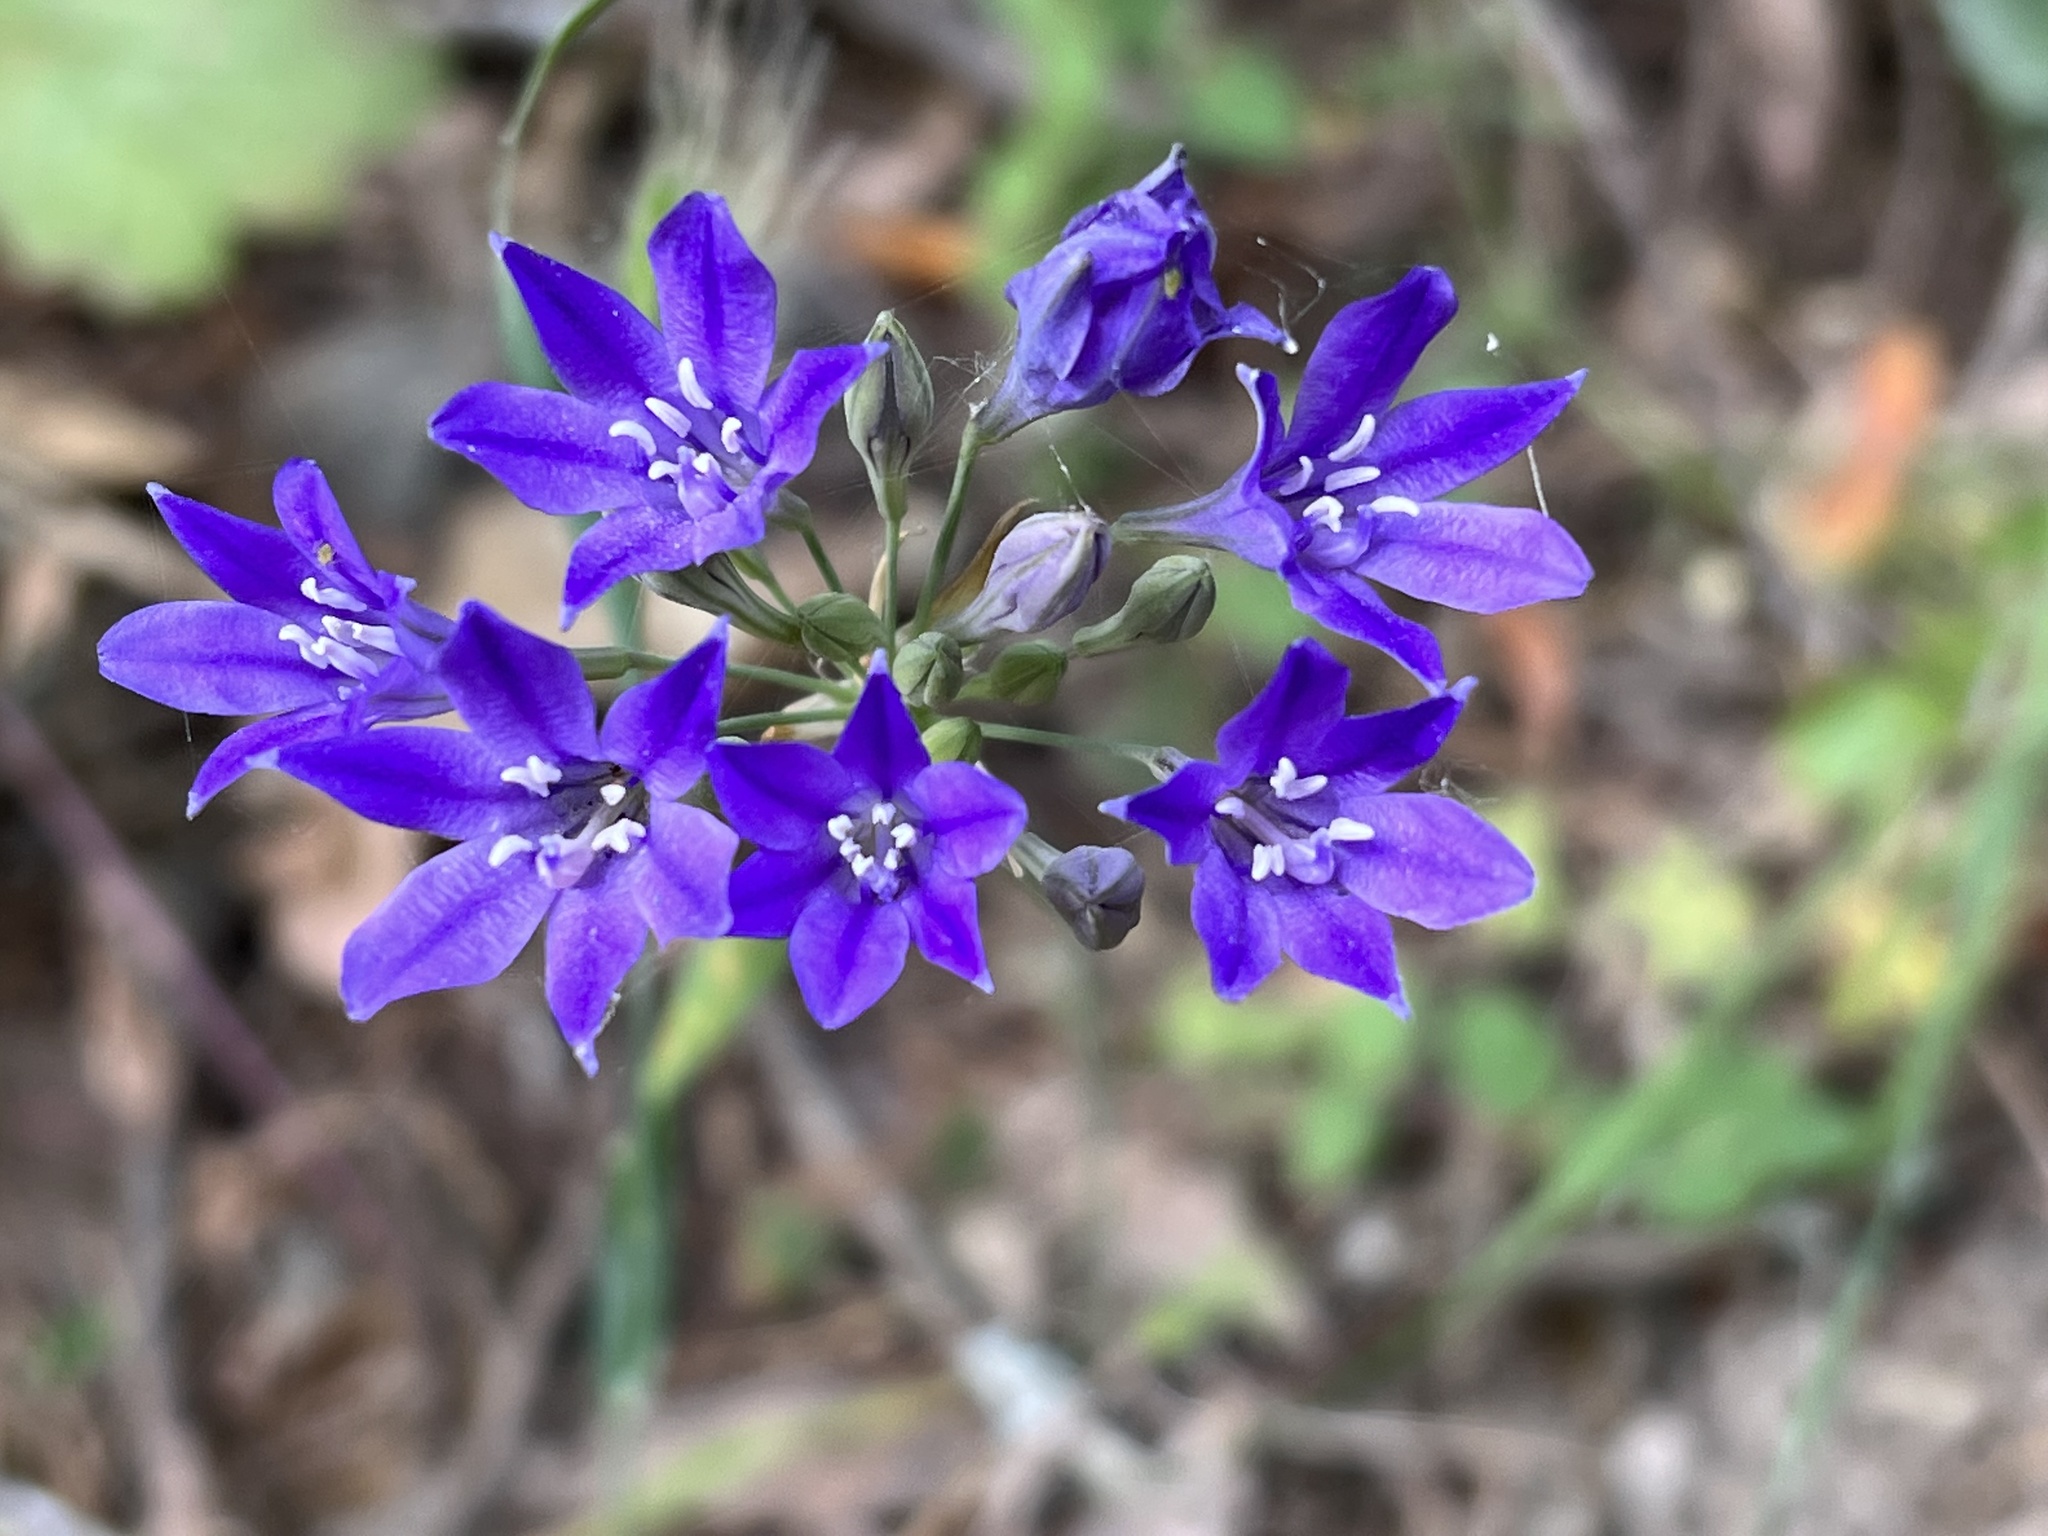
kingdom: Plantae
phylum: Tracheophyta
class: Liliopsida
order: Asparagales
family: Asparagaceae
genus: Triteleia
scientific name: Triteleia laxa
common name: Triplet-lily
